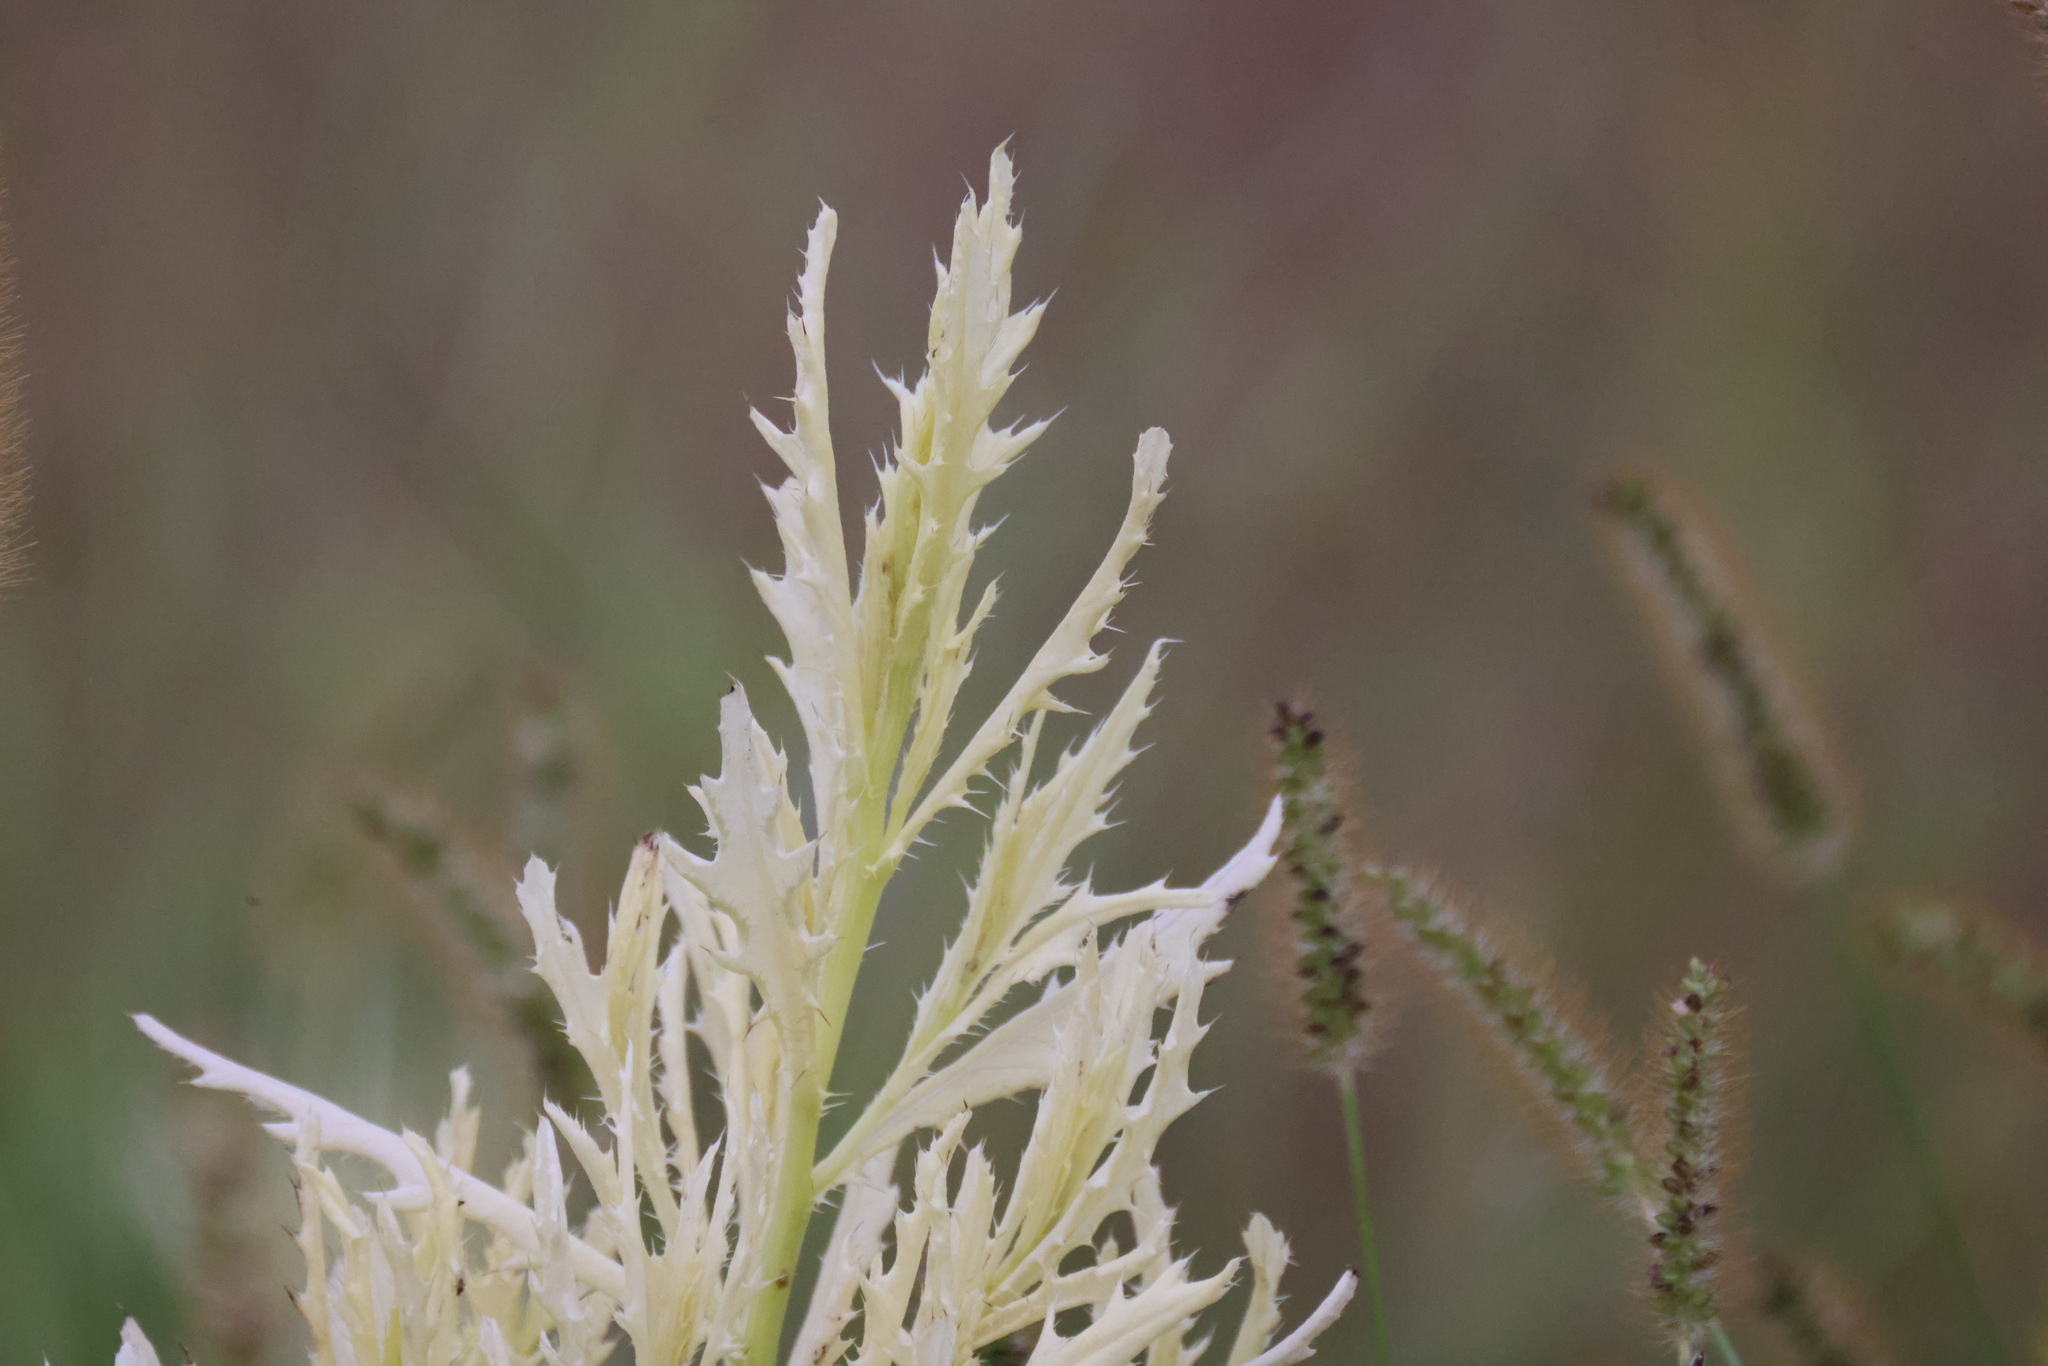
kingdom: Bacteria
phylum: Proteobacteria
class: Gammaproteobacteria
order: Pseudomonadales
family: Pseudomonadaceae
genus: Pseudomonas
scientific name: Pseudomonas syringae
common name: Bacterial speck
